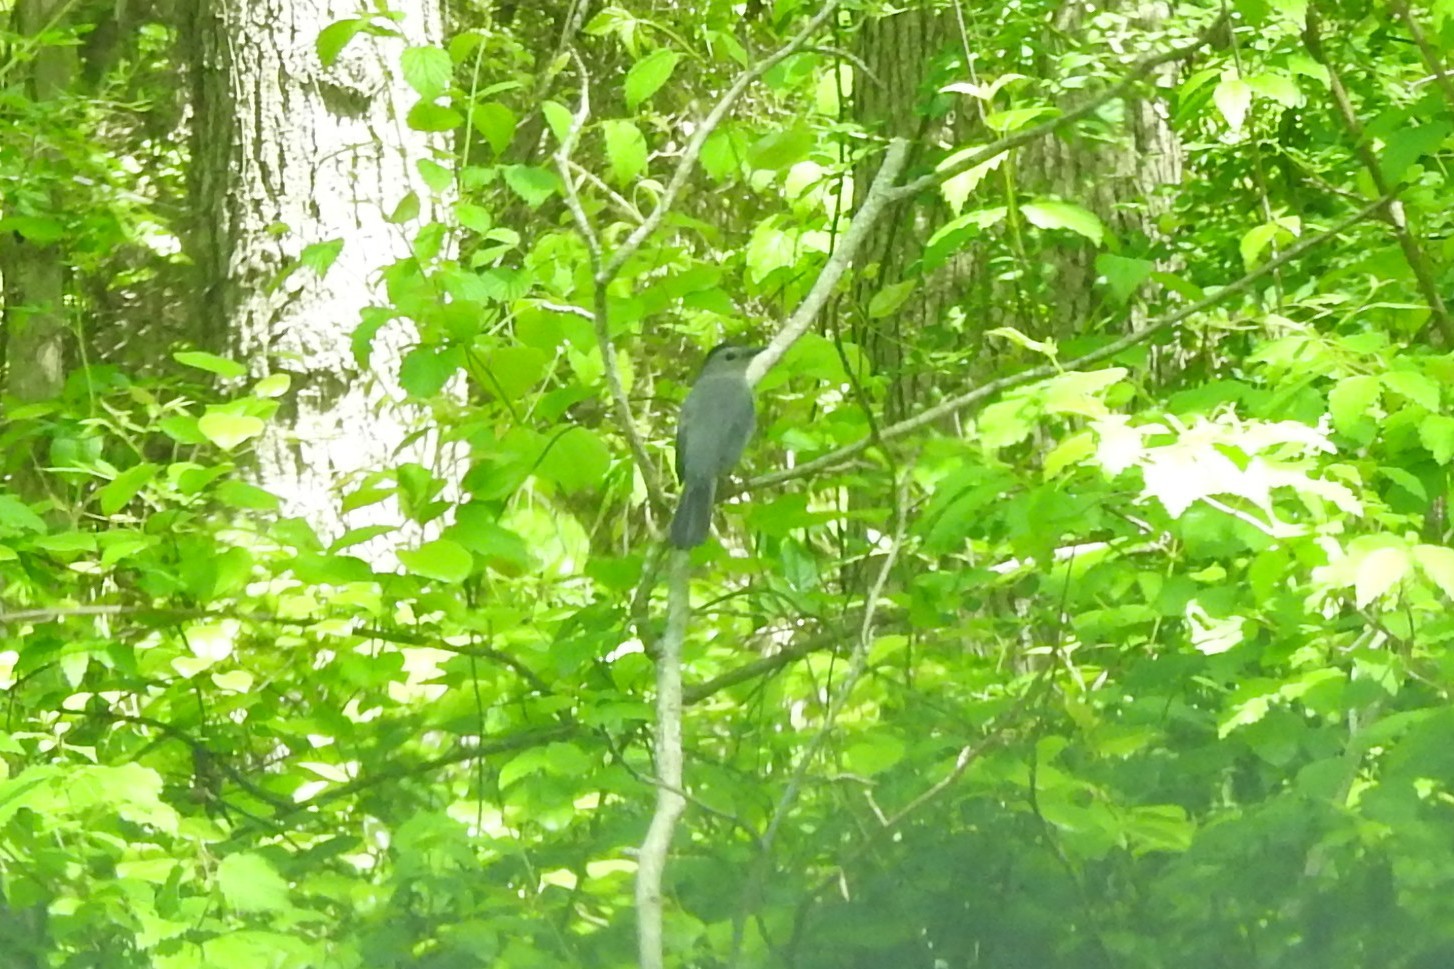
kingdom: Animalia
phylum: Chordata
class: Aves
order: Passeriformes
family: Mimidae
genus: Dumetella
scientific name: Dumetella carolinensis
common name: Gray catbird
